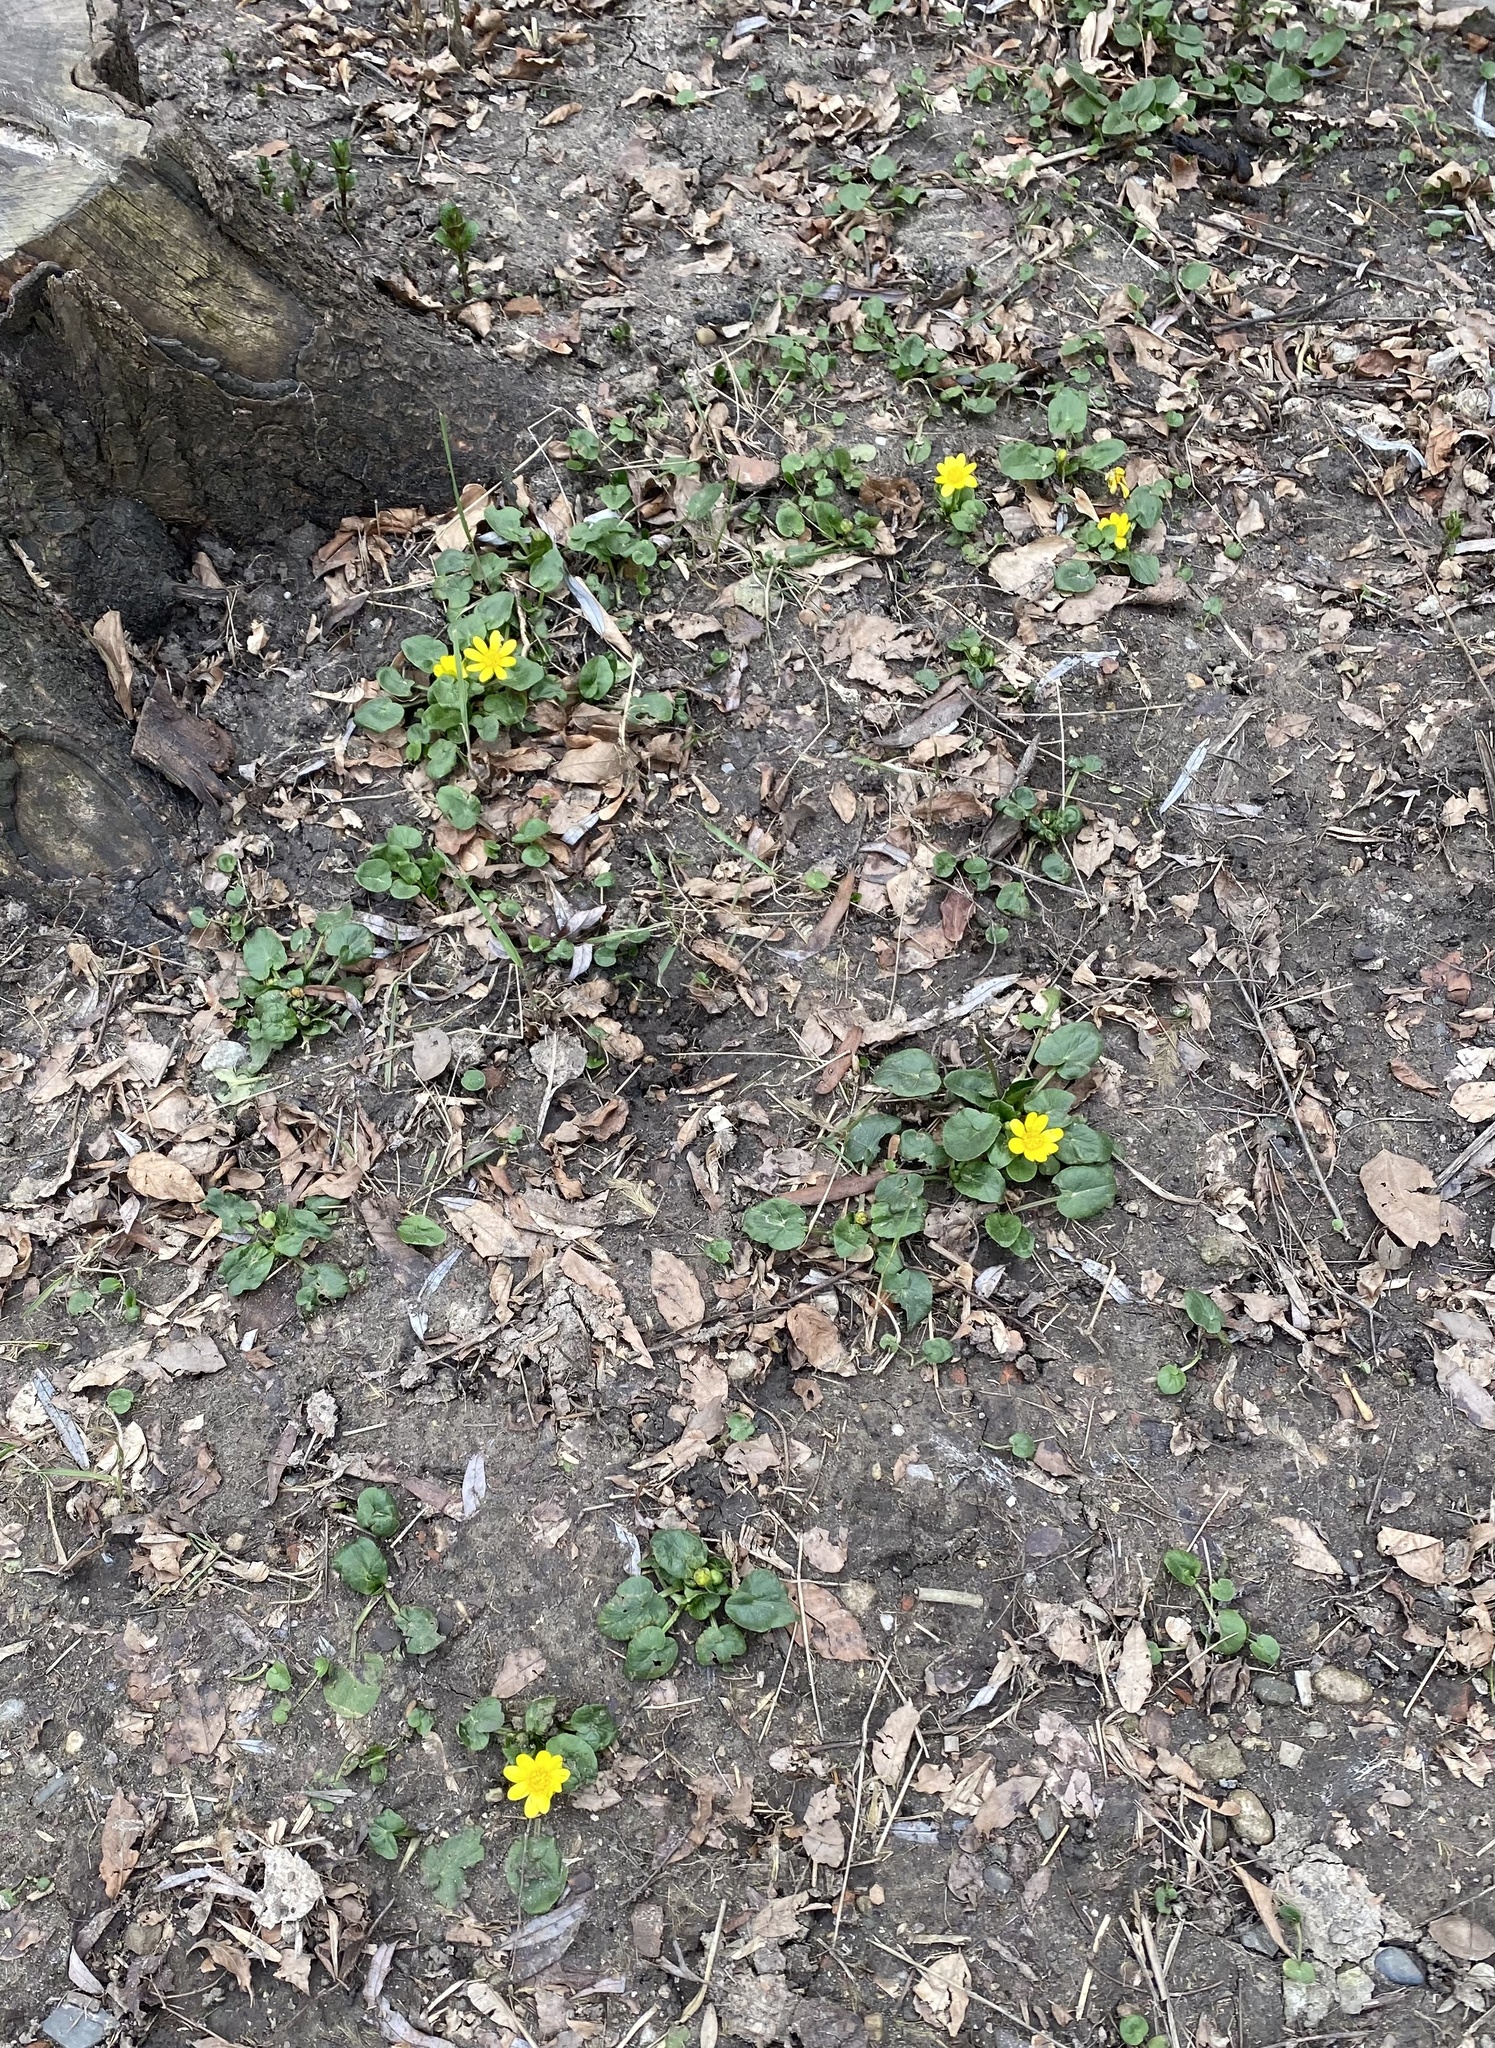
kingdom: Plantae
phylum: Tracheophyta
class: Magnoliopsida
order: Ranunculales
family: Ranunculaceae
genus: Ficaria
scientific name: Ficaria verna
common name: Lesser celandine
